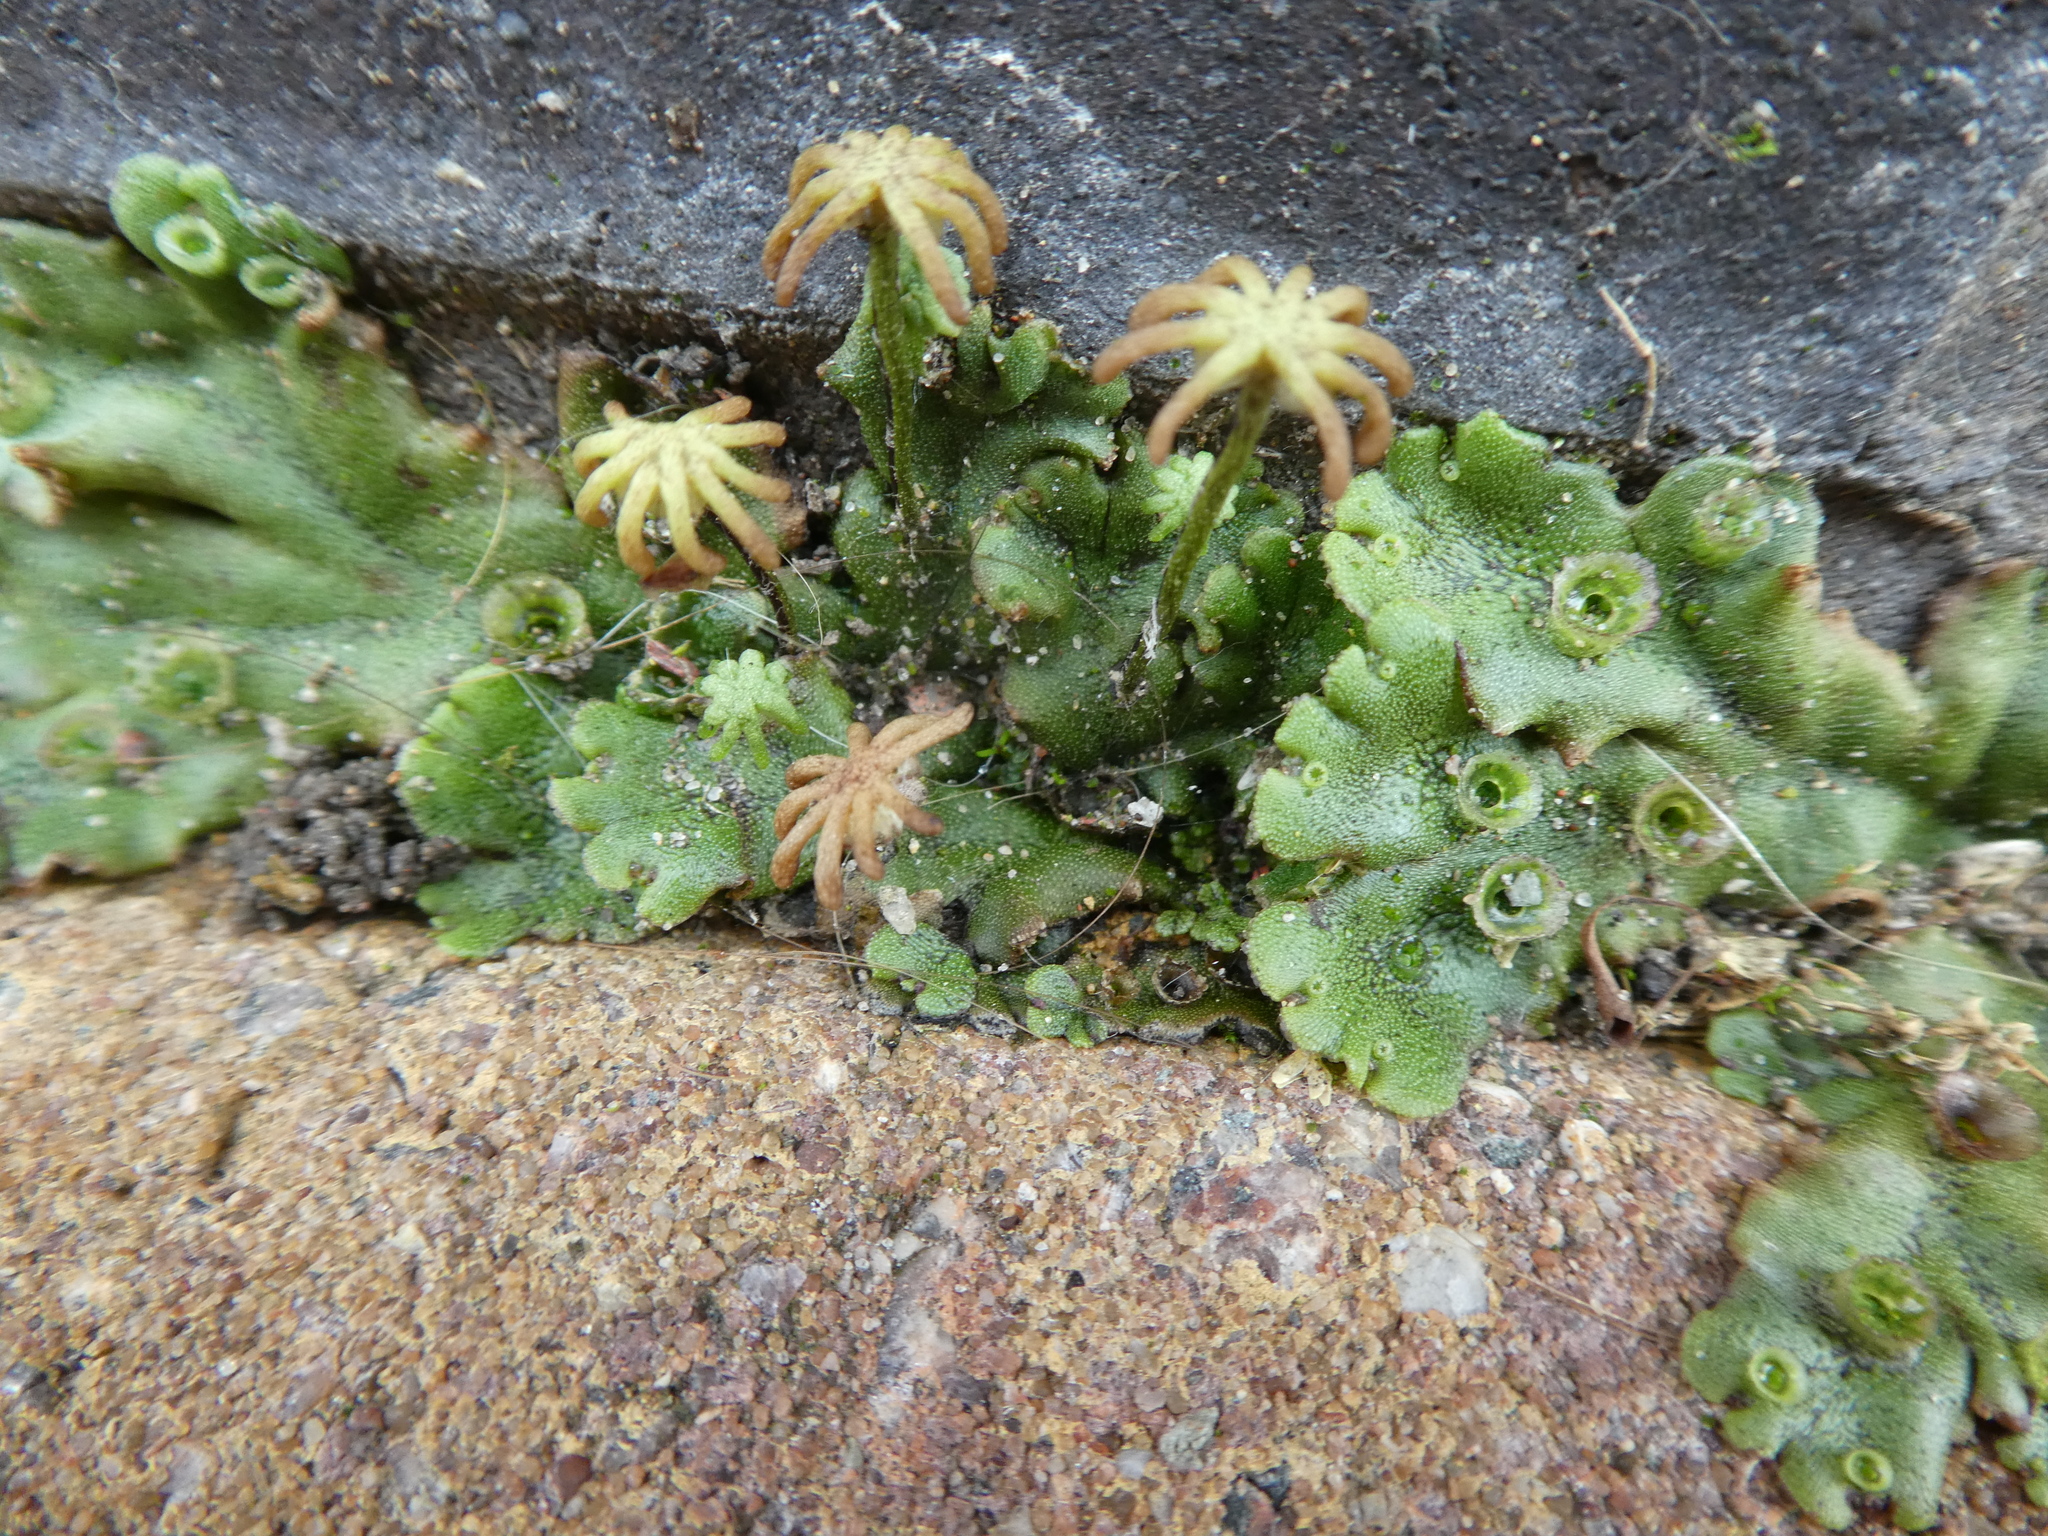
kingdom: Plantae
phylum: Marchantiophyta
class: Marchantiopsida
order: Marchantiales
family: Marchantiaceae
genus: Marchantia
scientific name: Marchantia polymorpha
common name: Common liverwort
